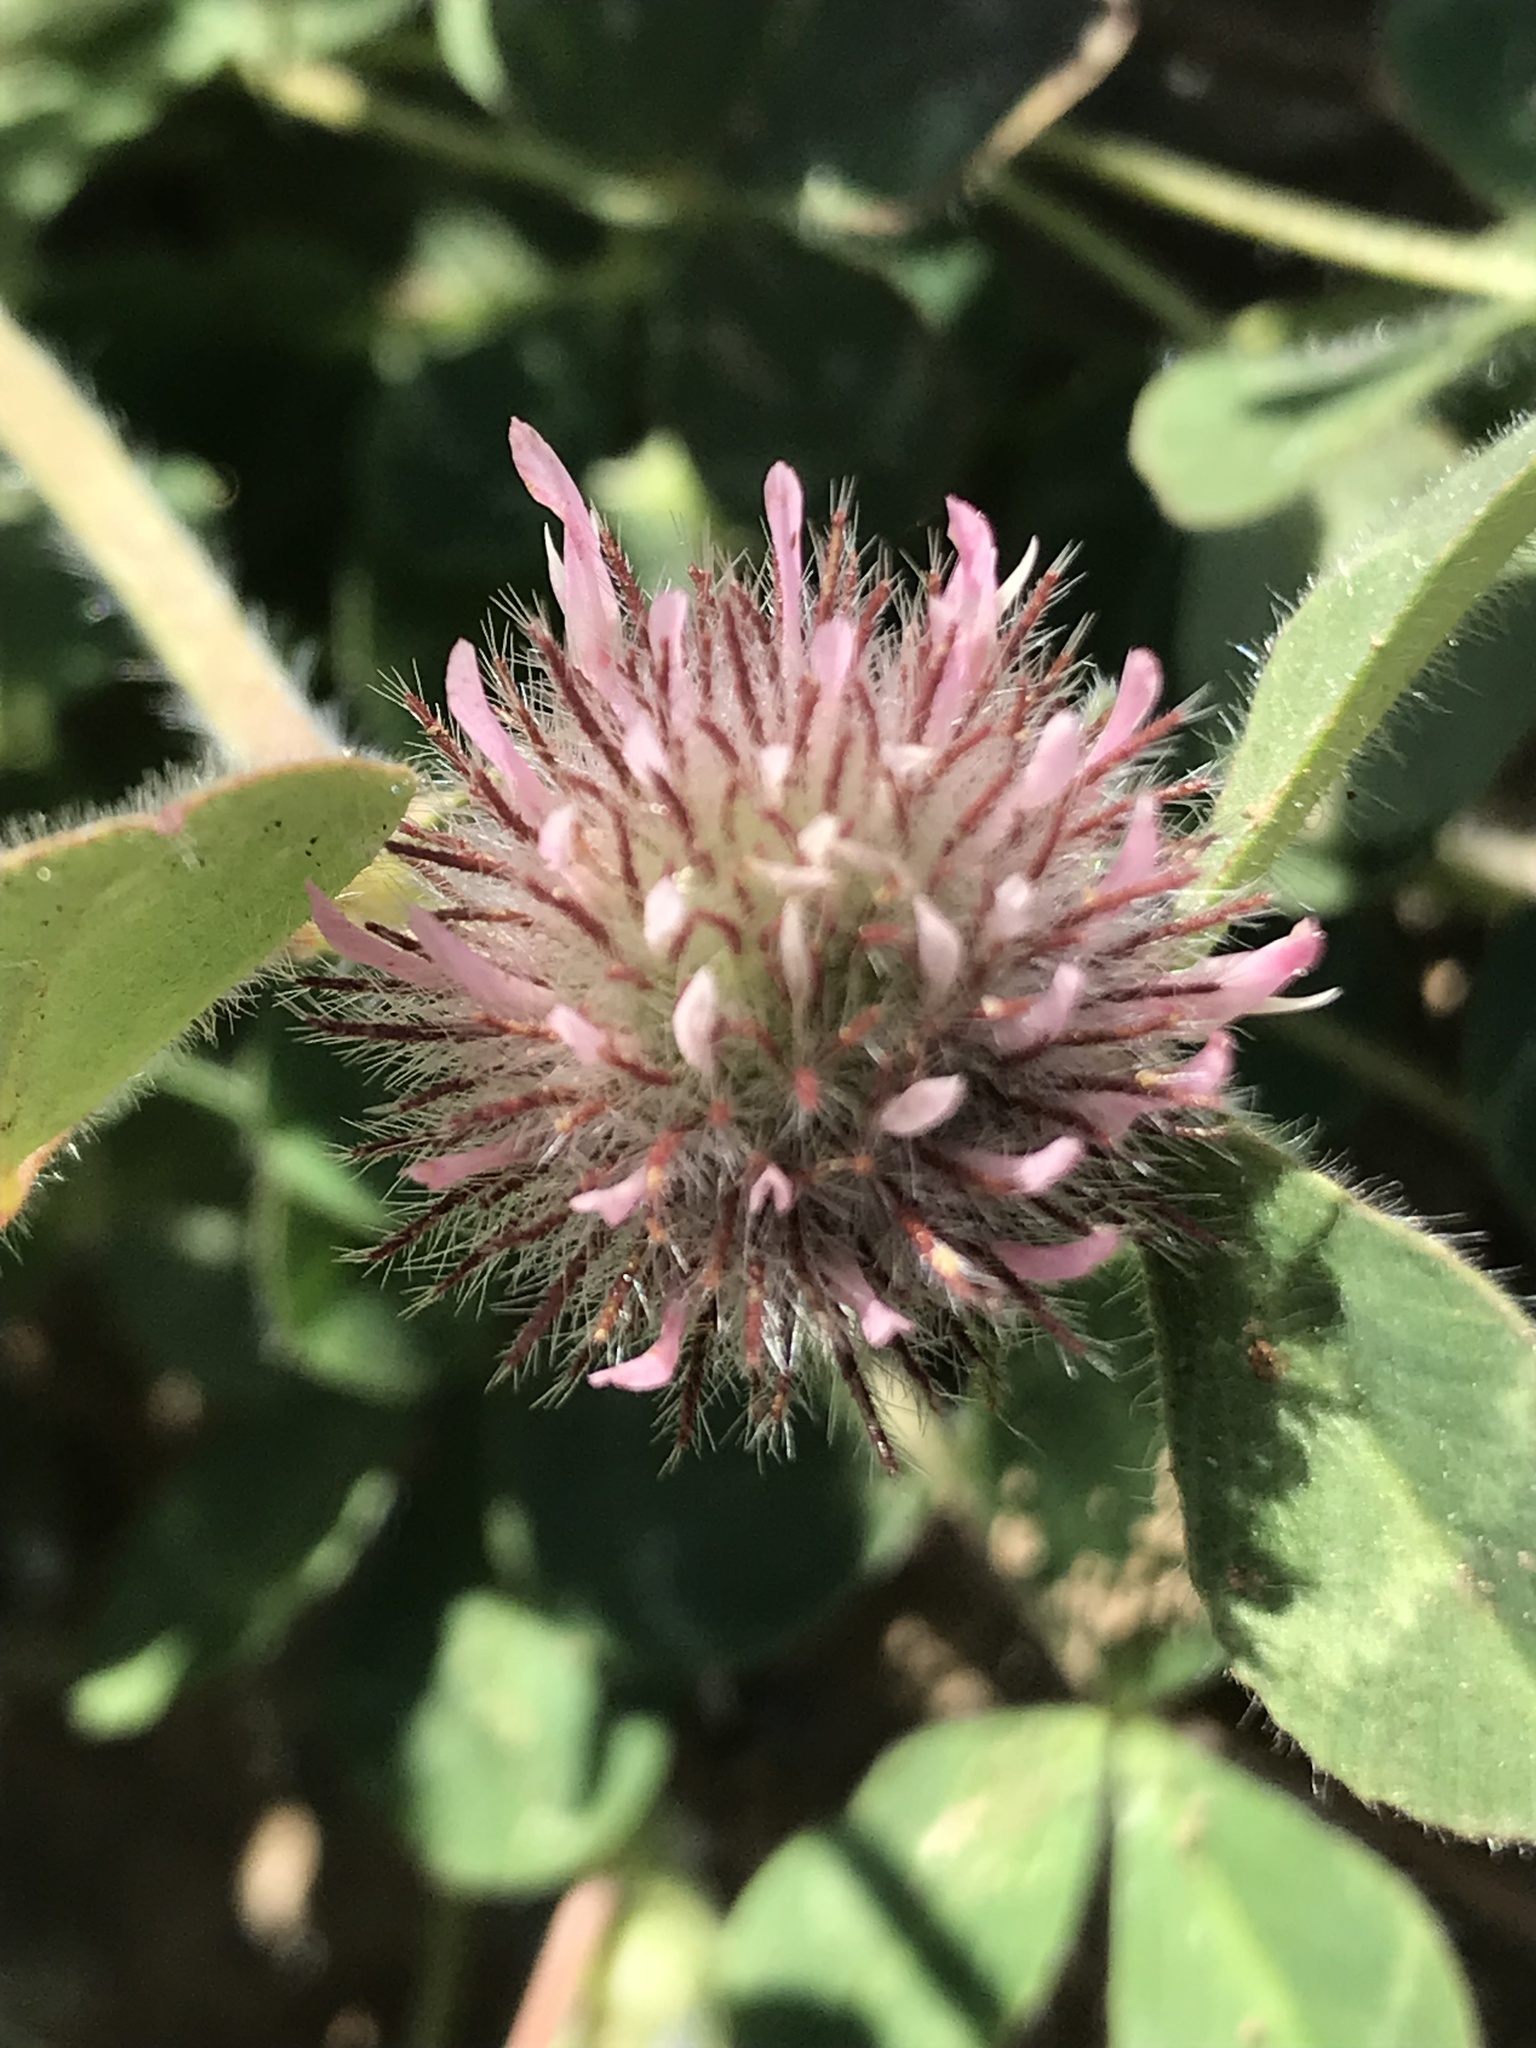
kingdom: Plantae
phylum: Tracheophyta
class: Magnoliopsida
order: Fabales
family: Fabaceae
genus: Trifolium
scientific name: Trifolium hirtum
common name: Rose clover
